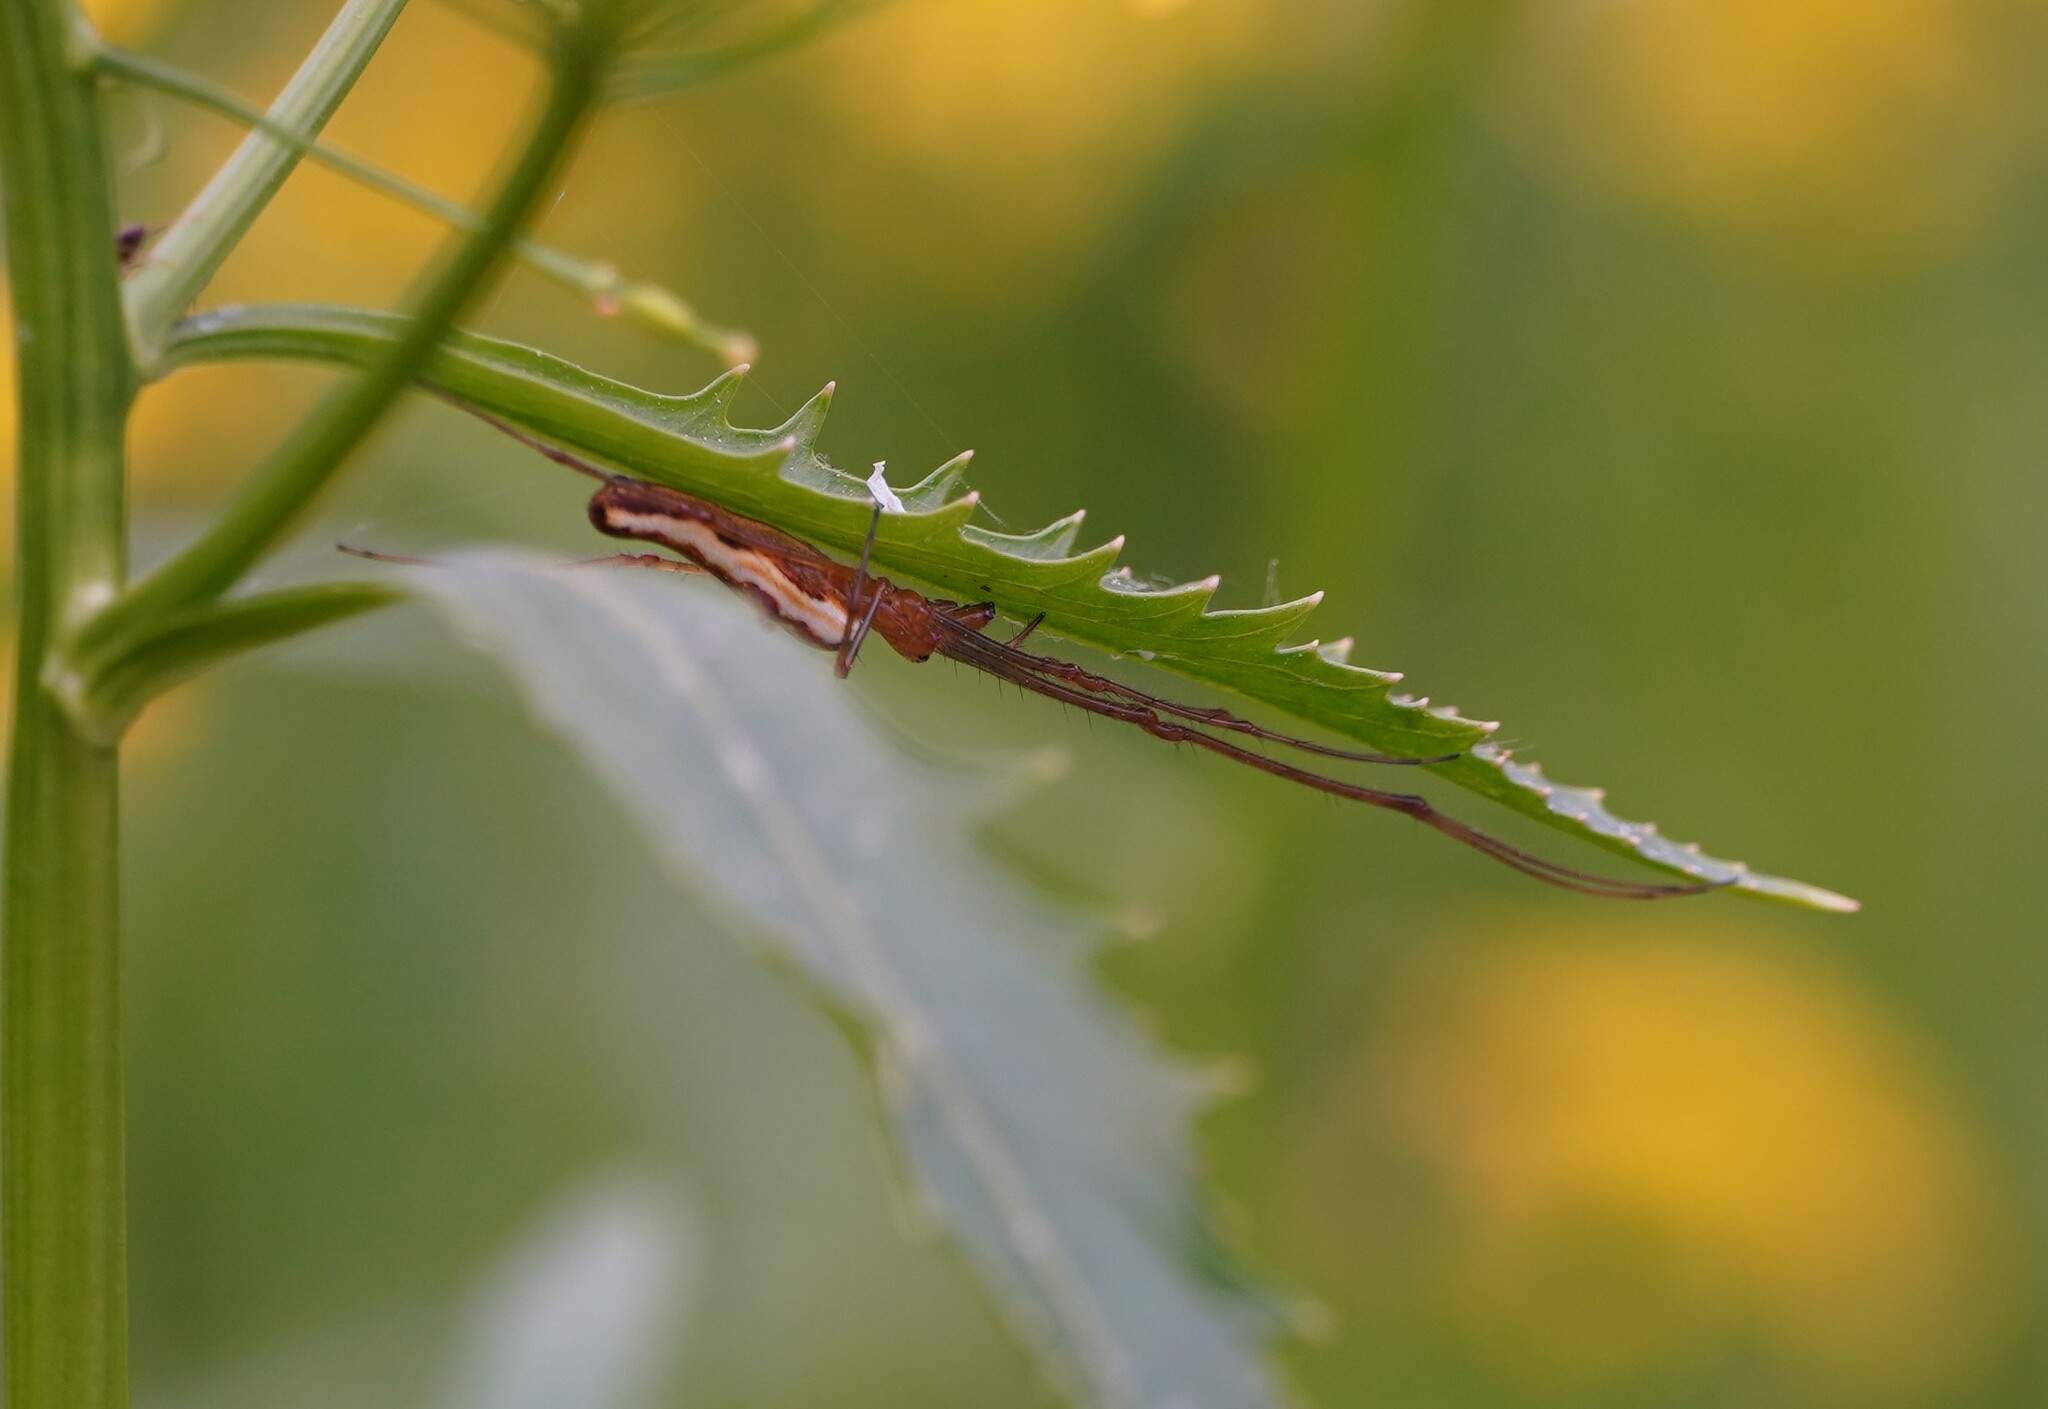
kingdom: Animalia
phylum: Arthropoda
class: Arachnida
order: Araneae
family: Tetragnathidae
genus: Tetragnatha
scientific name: Tetragnatha
